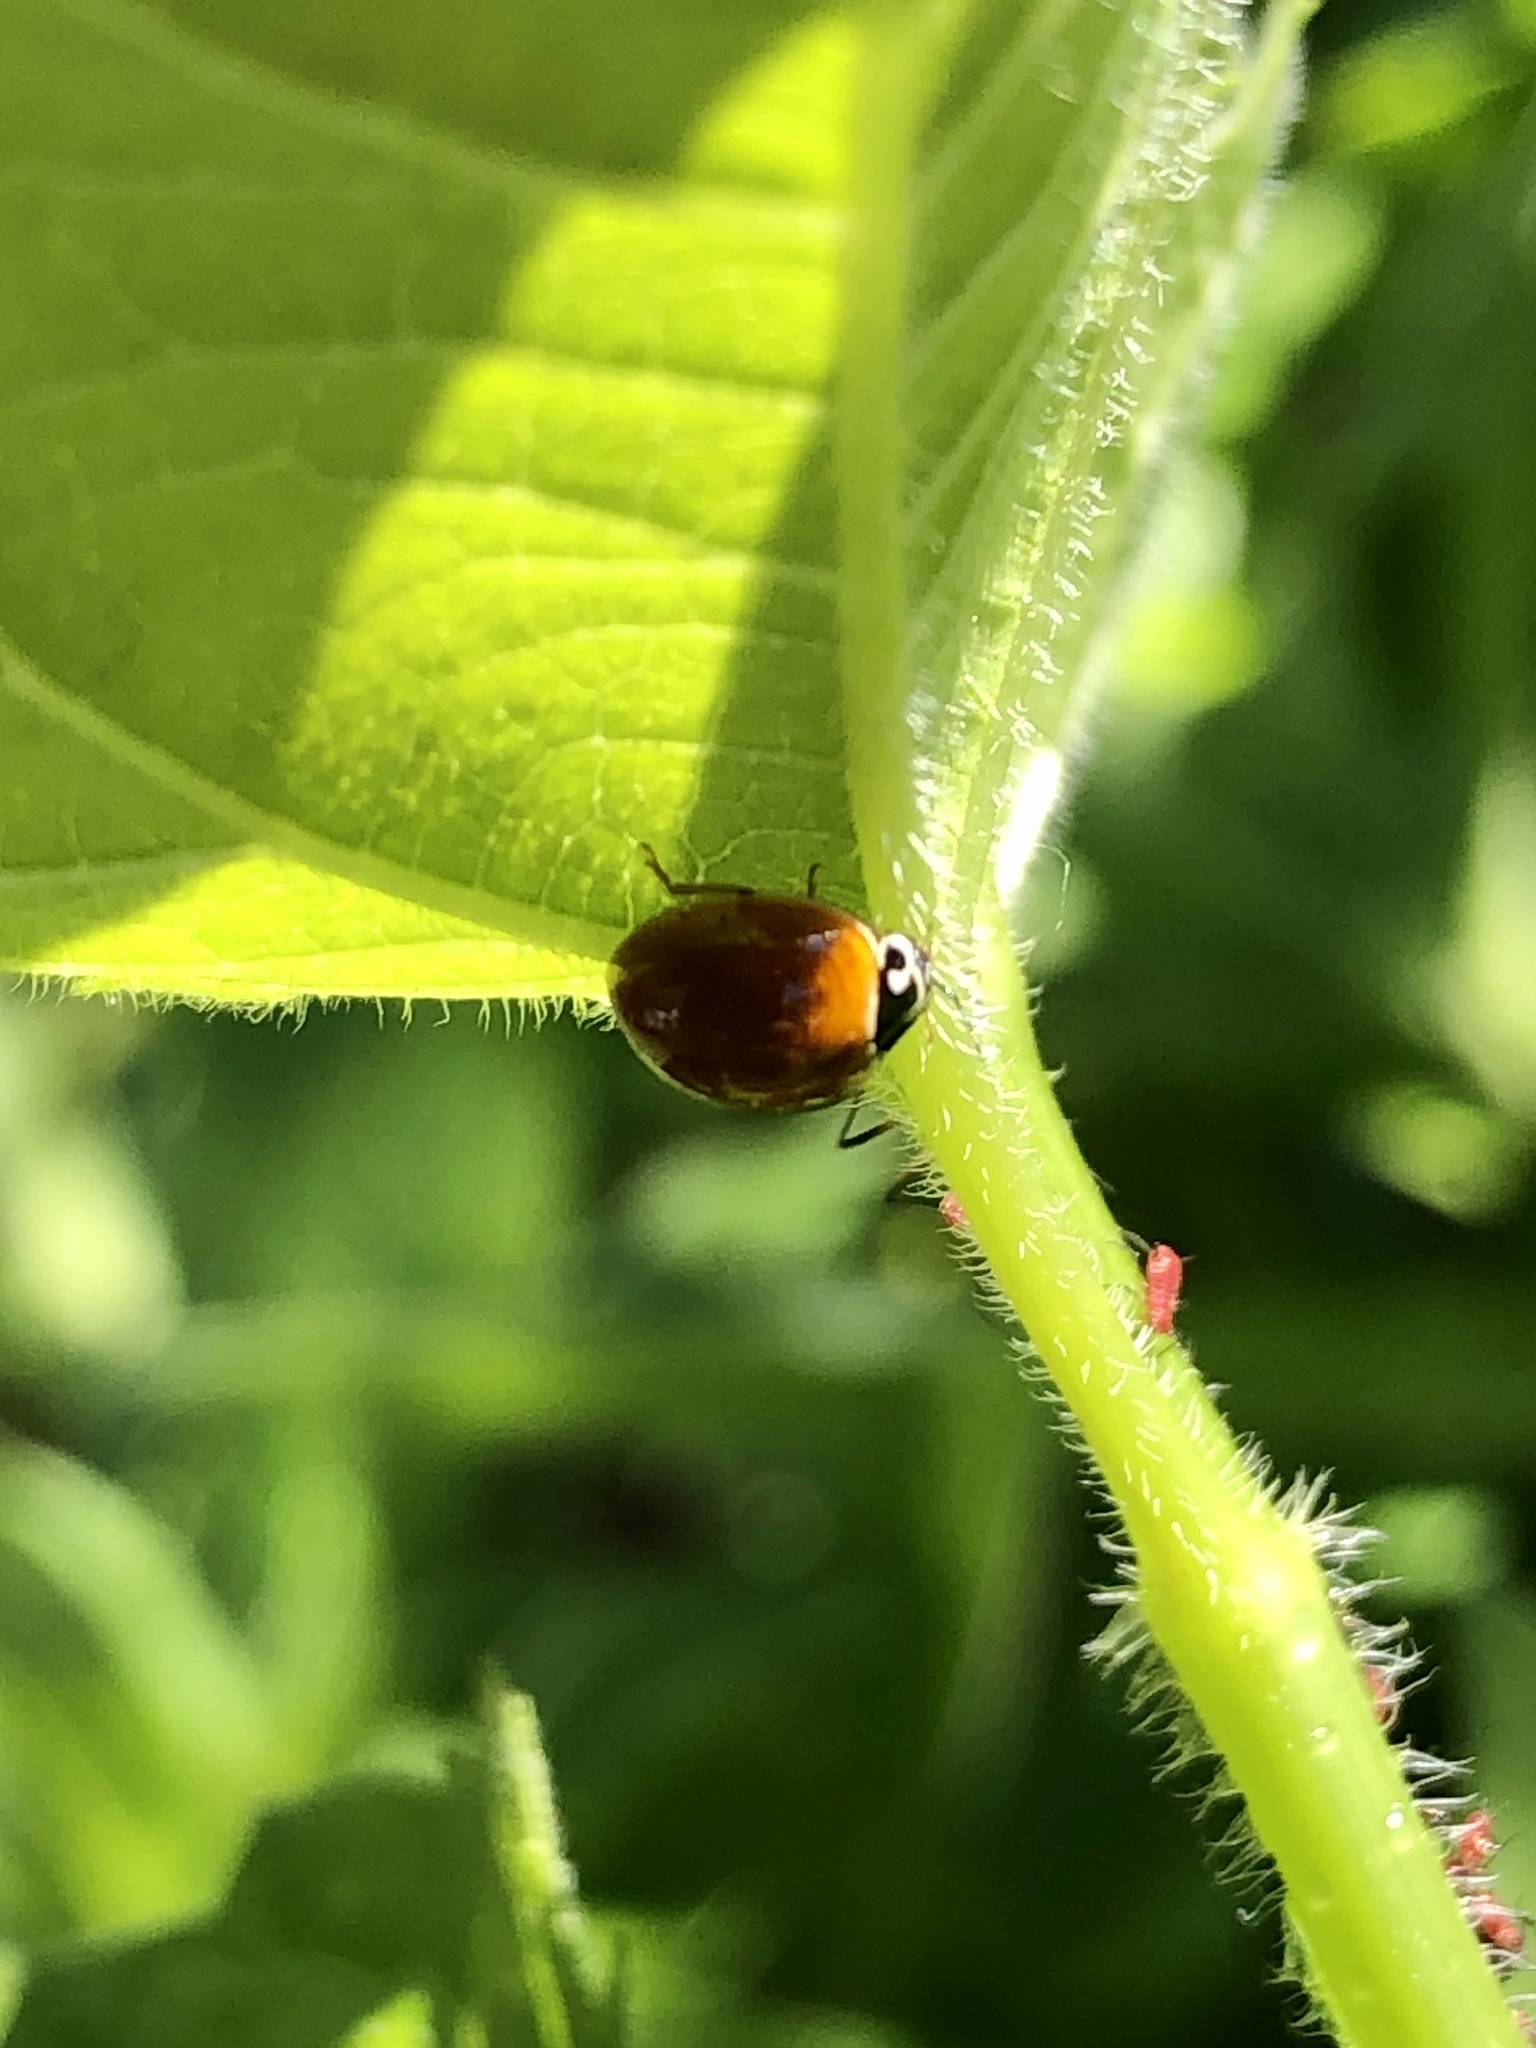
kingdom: Animalia
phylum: Arthropoda
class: Insecta
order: Coleoptera
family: Coccinellidae
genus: Cycloneda
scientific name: Cycloneda munda
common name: Polished lady beetle
